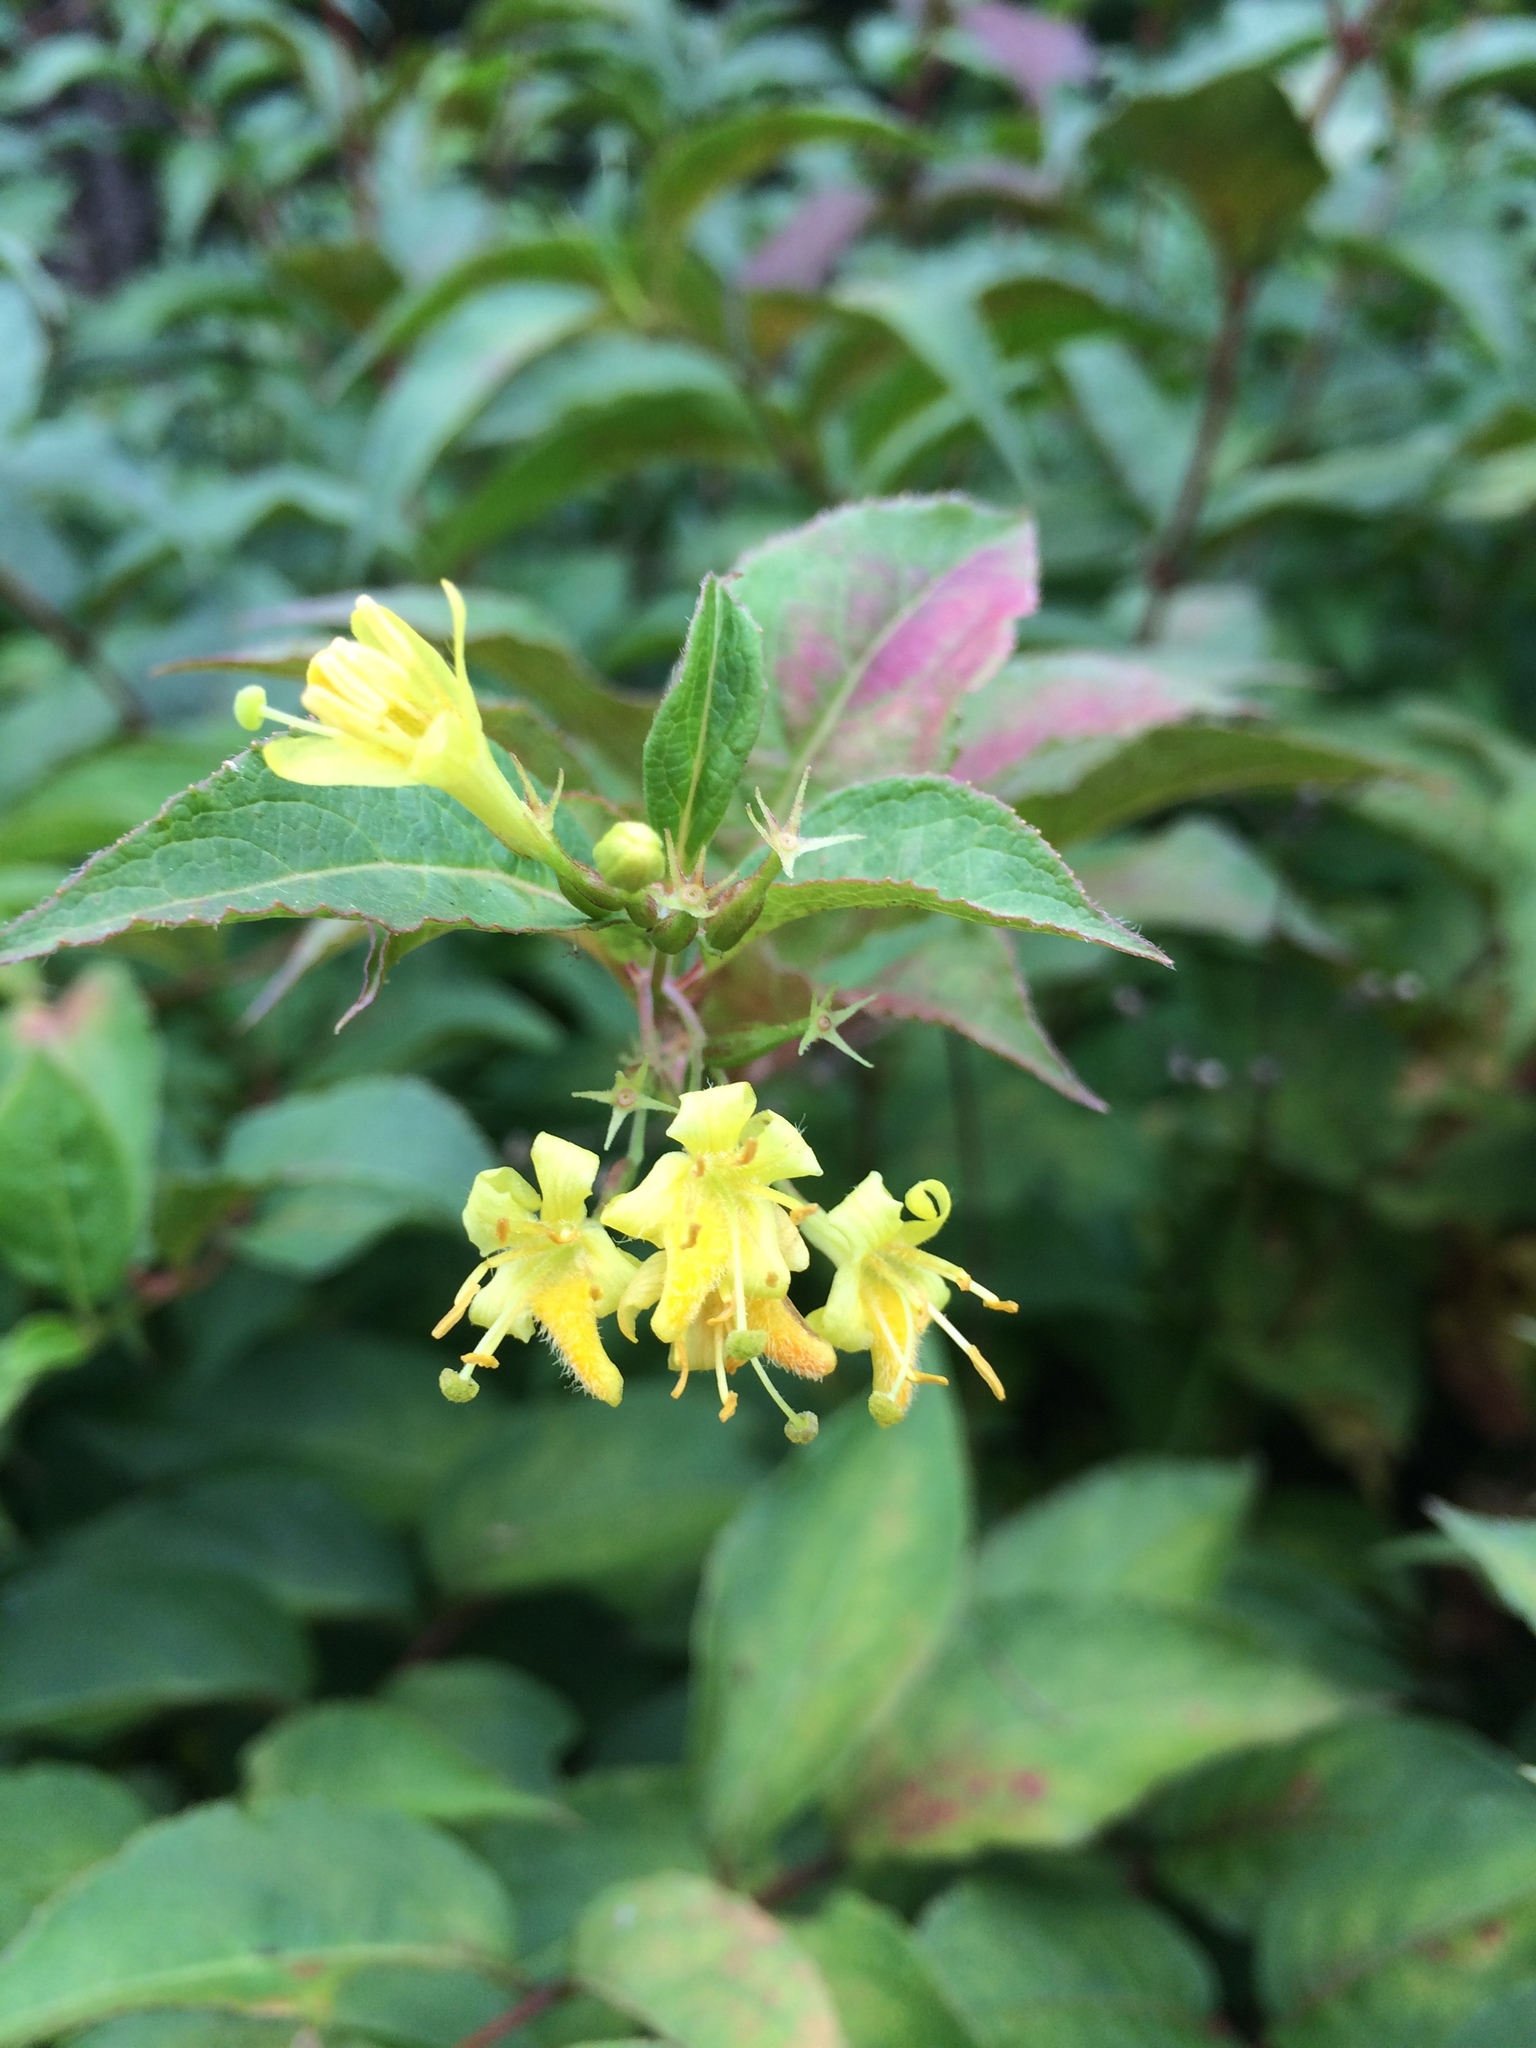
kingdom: Plantae
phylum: Tracheophyta
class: Magnoliopsida
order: Dipsacales
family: Caprifoliaceae
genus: Diervilla
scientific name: Diervilla lonicera
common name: Bush-honeysuckle
